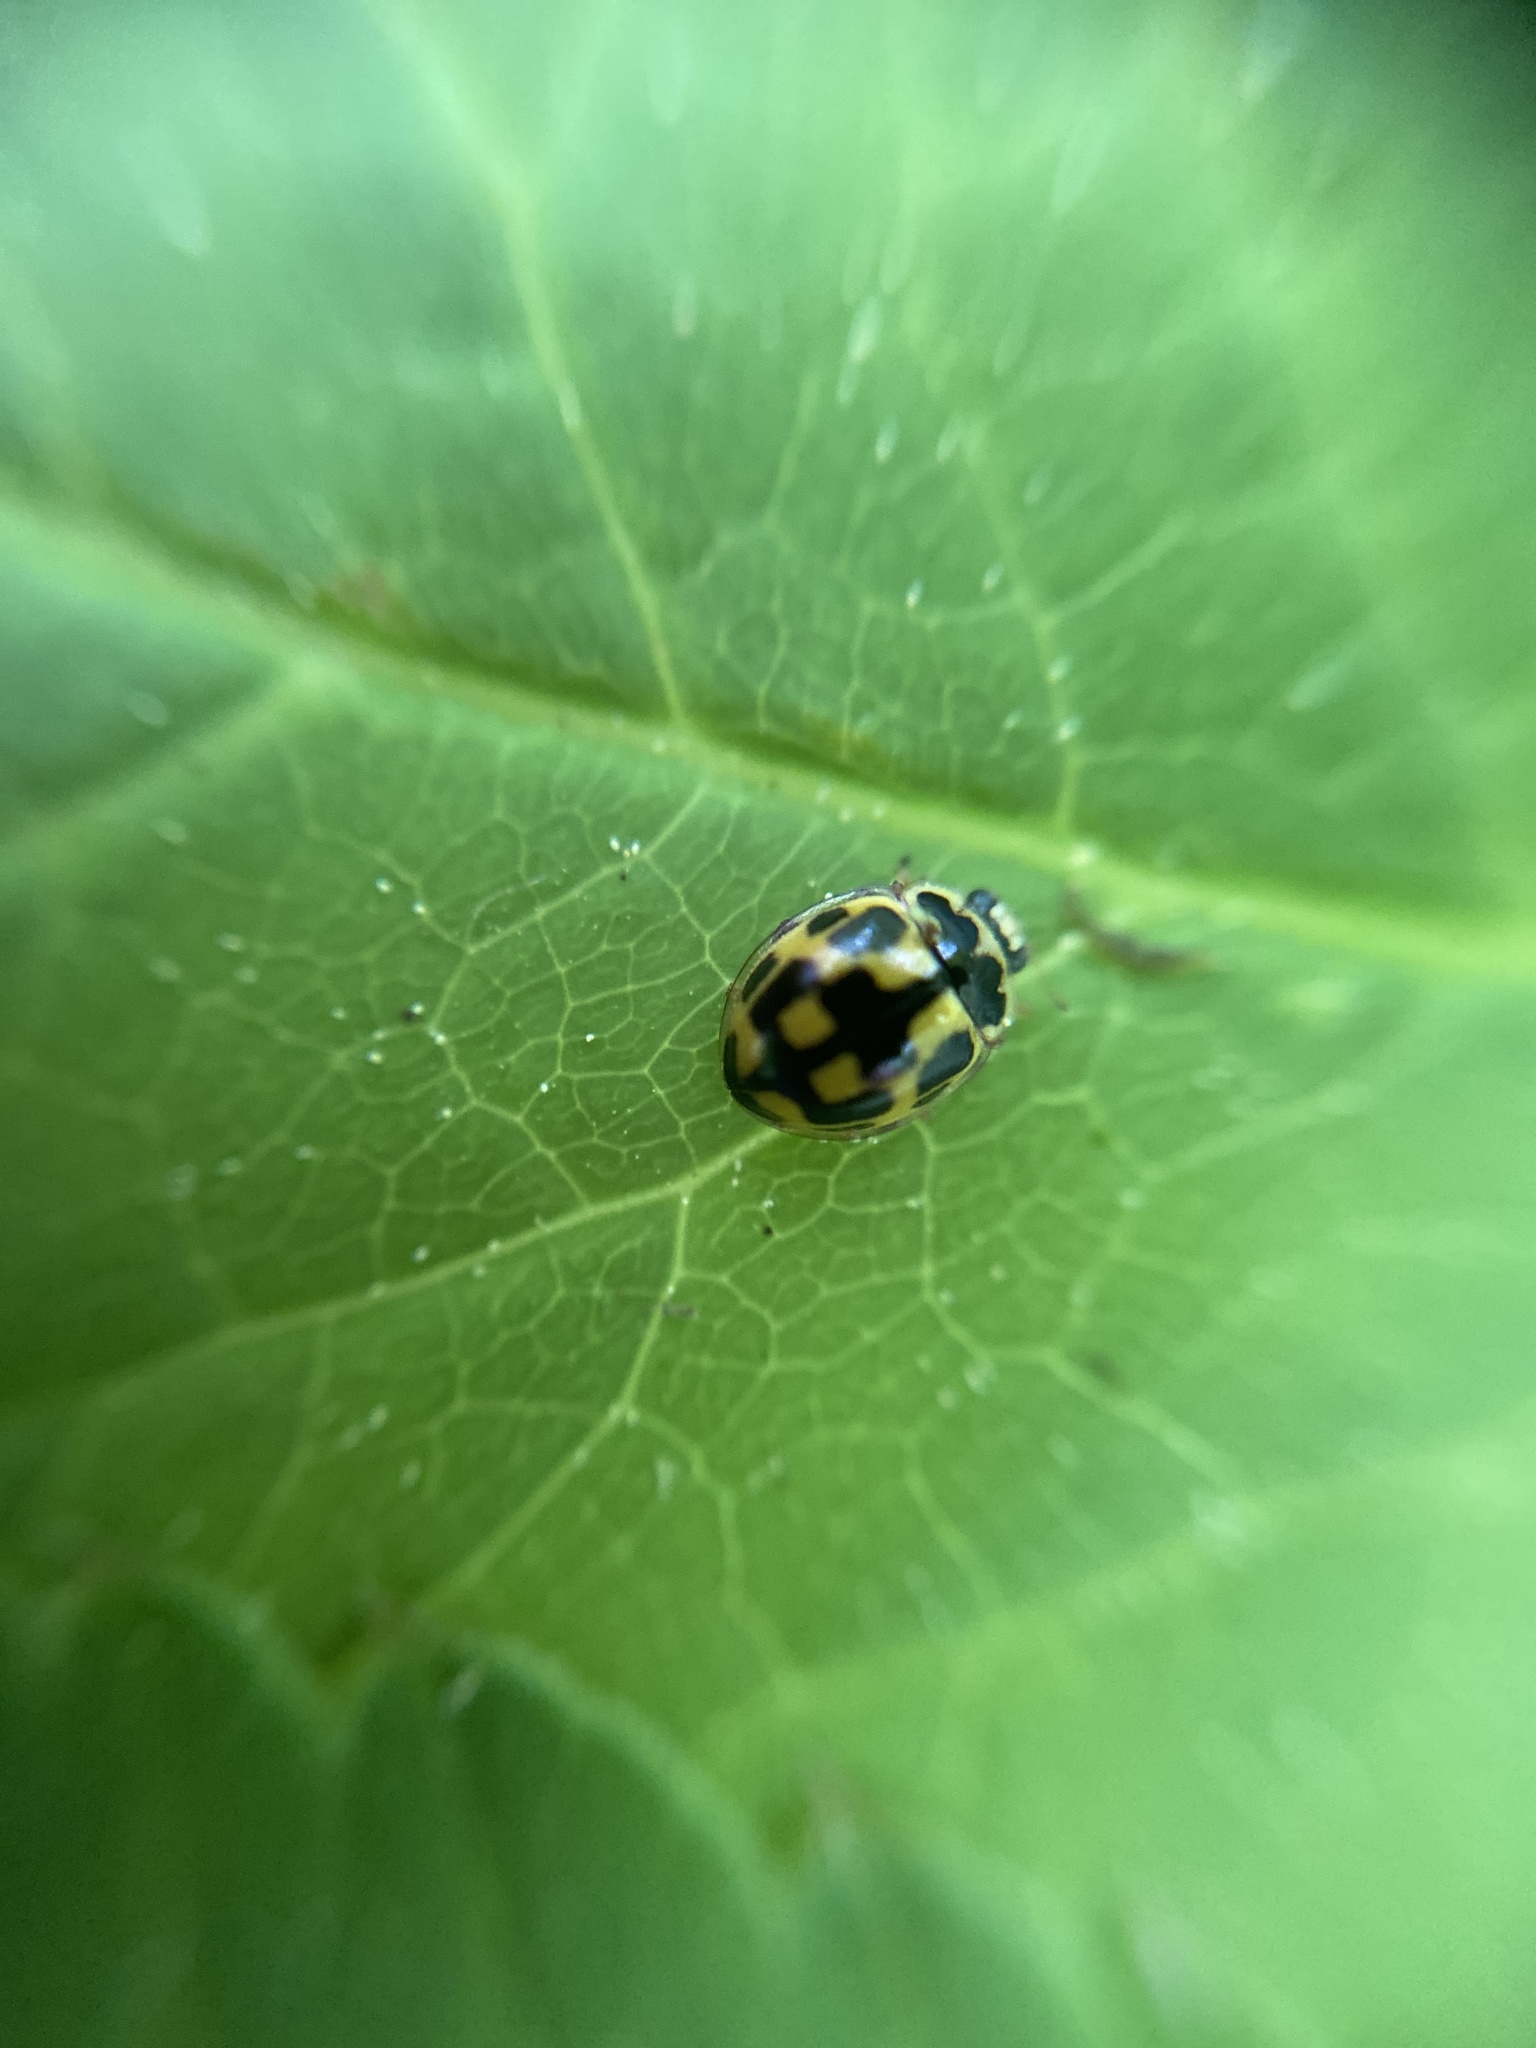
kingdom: Animalia
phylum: Arthropoda
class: Insecta
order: Coleoptera
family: Coccinellidae
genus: Propylaea
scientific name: Propylaea quatuordecimpunctata
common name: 14-spotted ladybird beetle
